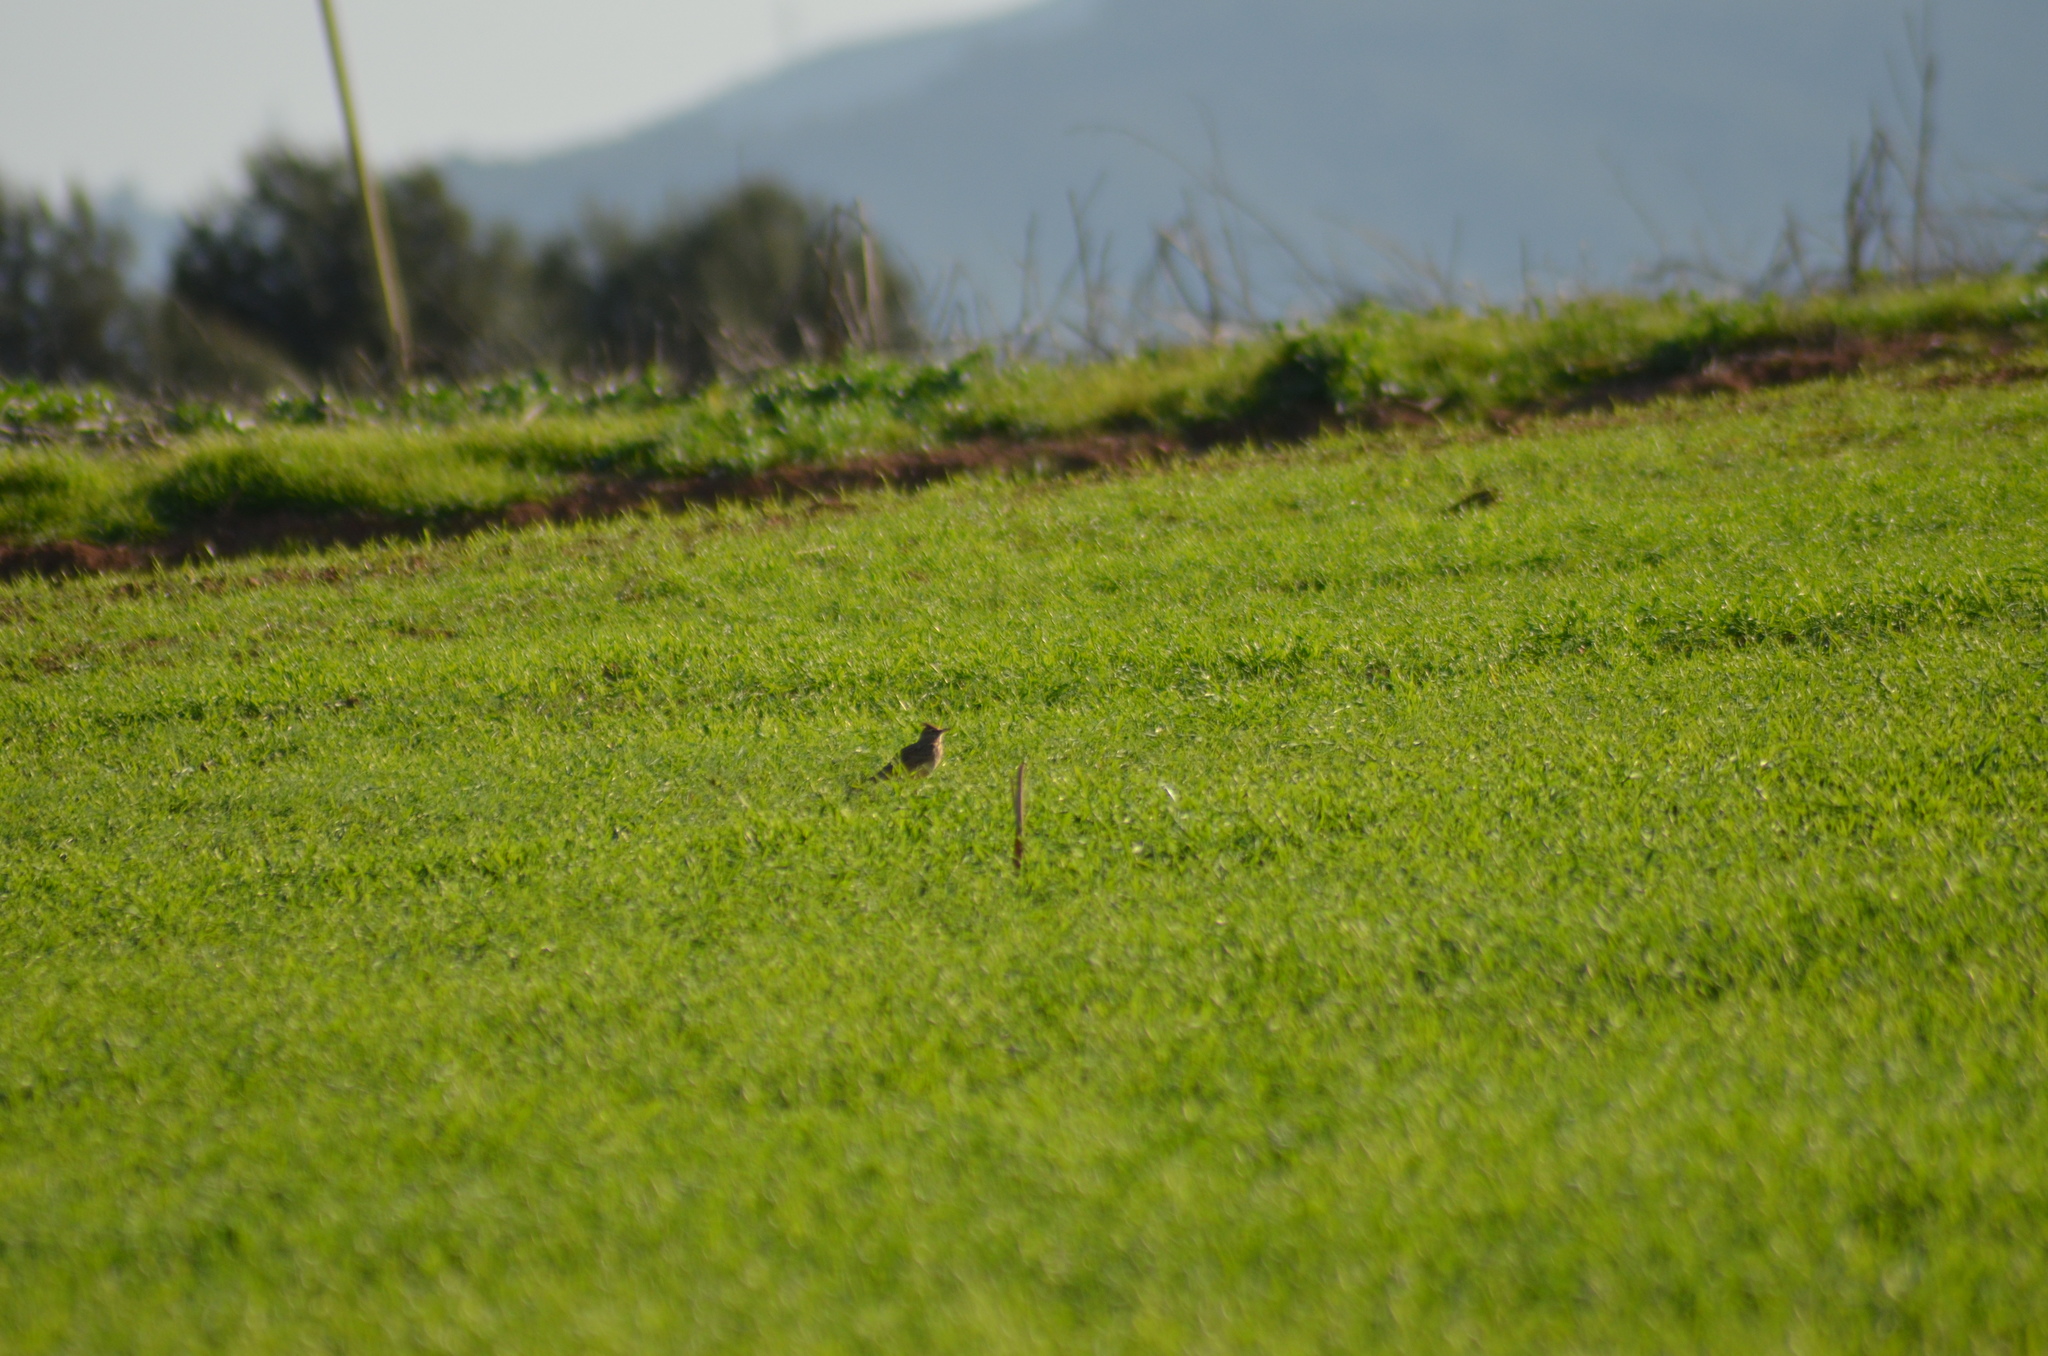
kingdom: Animalia
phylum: Chordata
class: Aves
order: Passeriformes
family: Alaudidae
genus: Galerida
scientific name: Galerida cristata
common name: Crested lark
